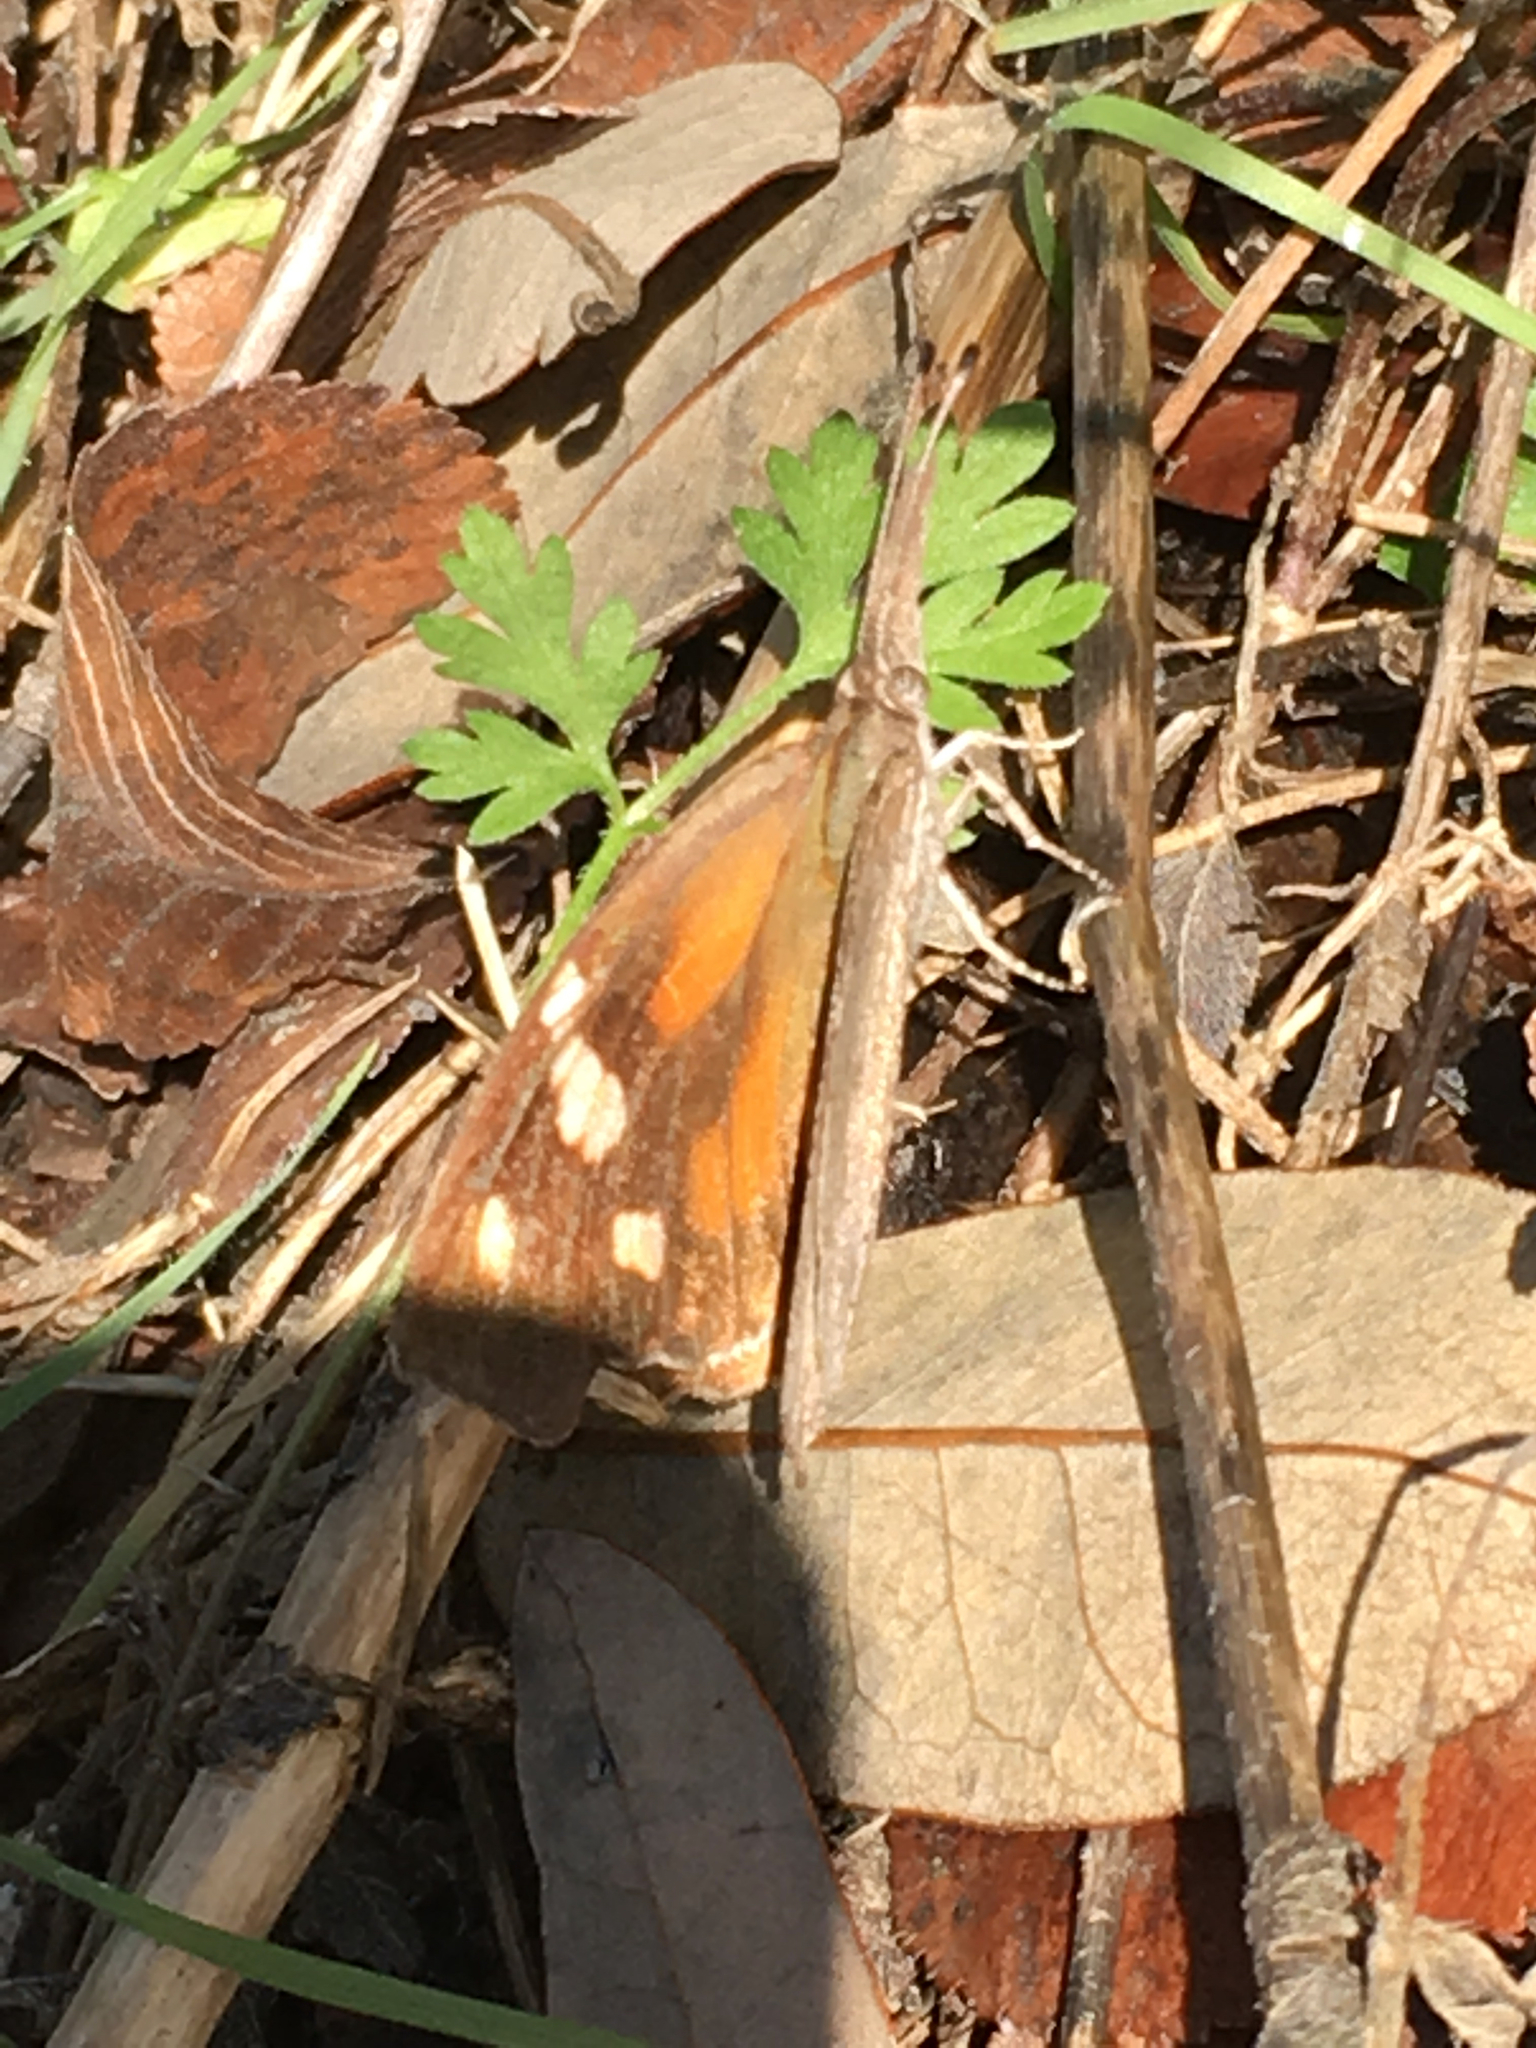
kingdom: Animalia
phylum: Arthropoda
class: Insecta
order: Lepidoptera
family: Nymphalidae
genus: Libytheana
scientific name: Libytheana carinenta
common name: American snout
